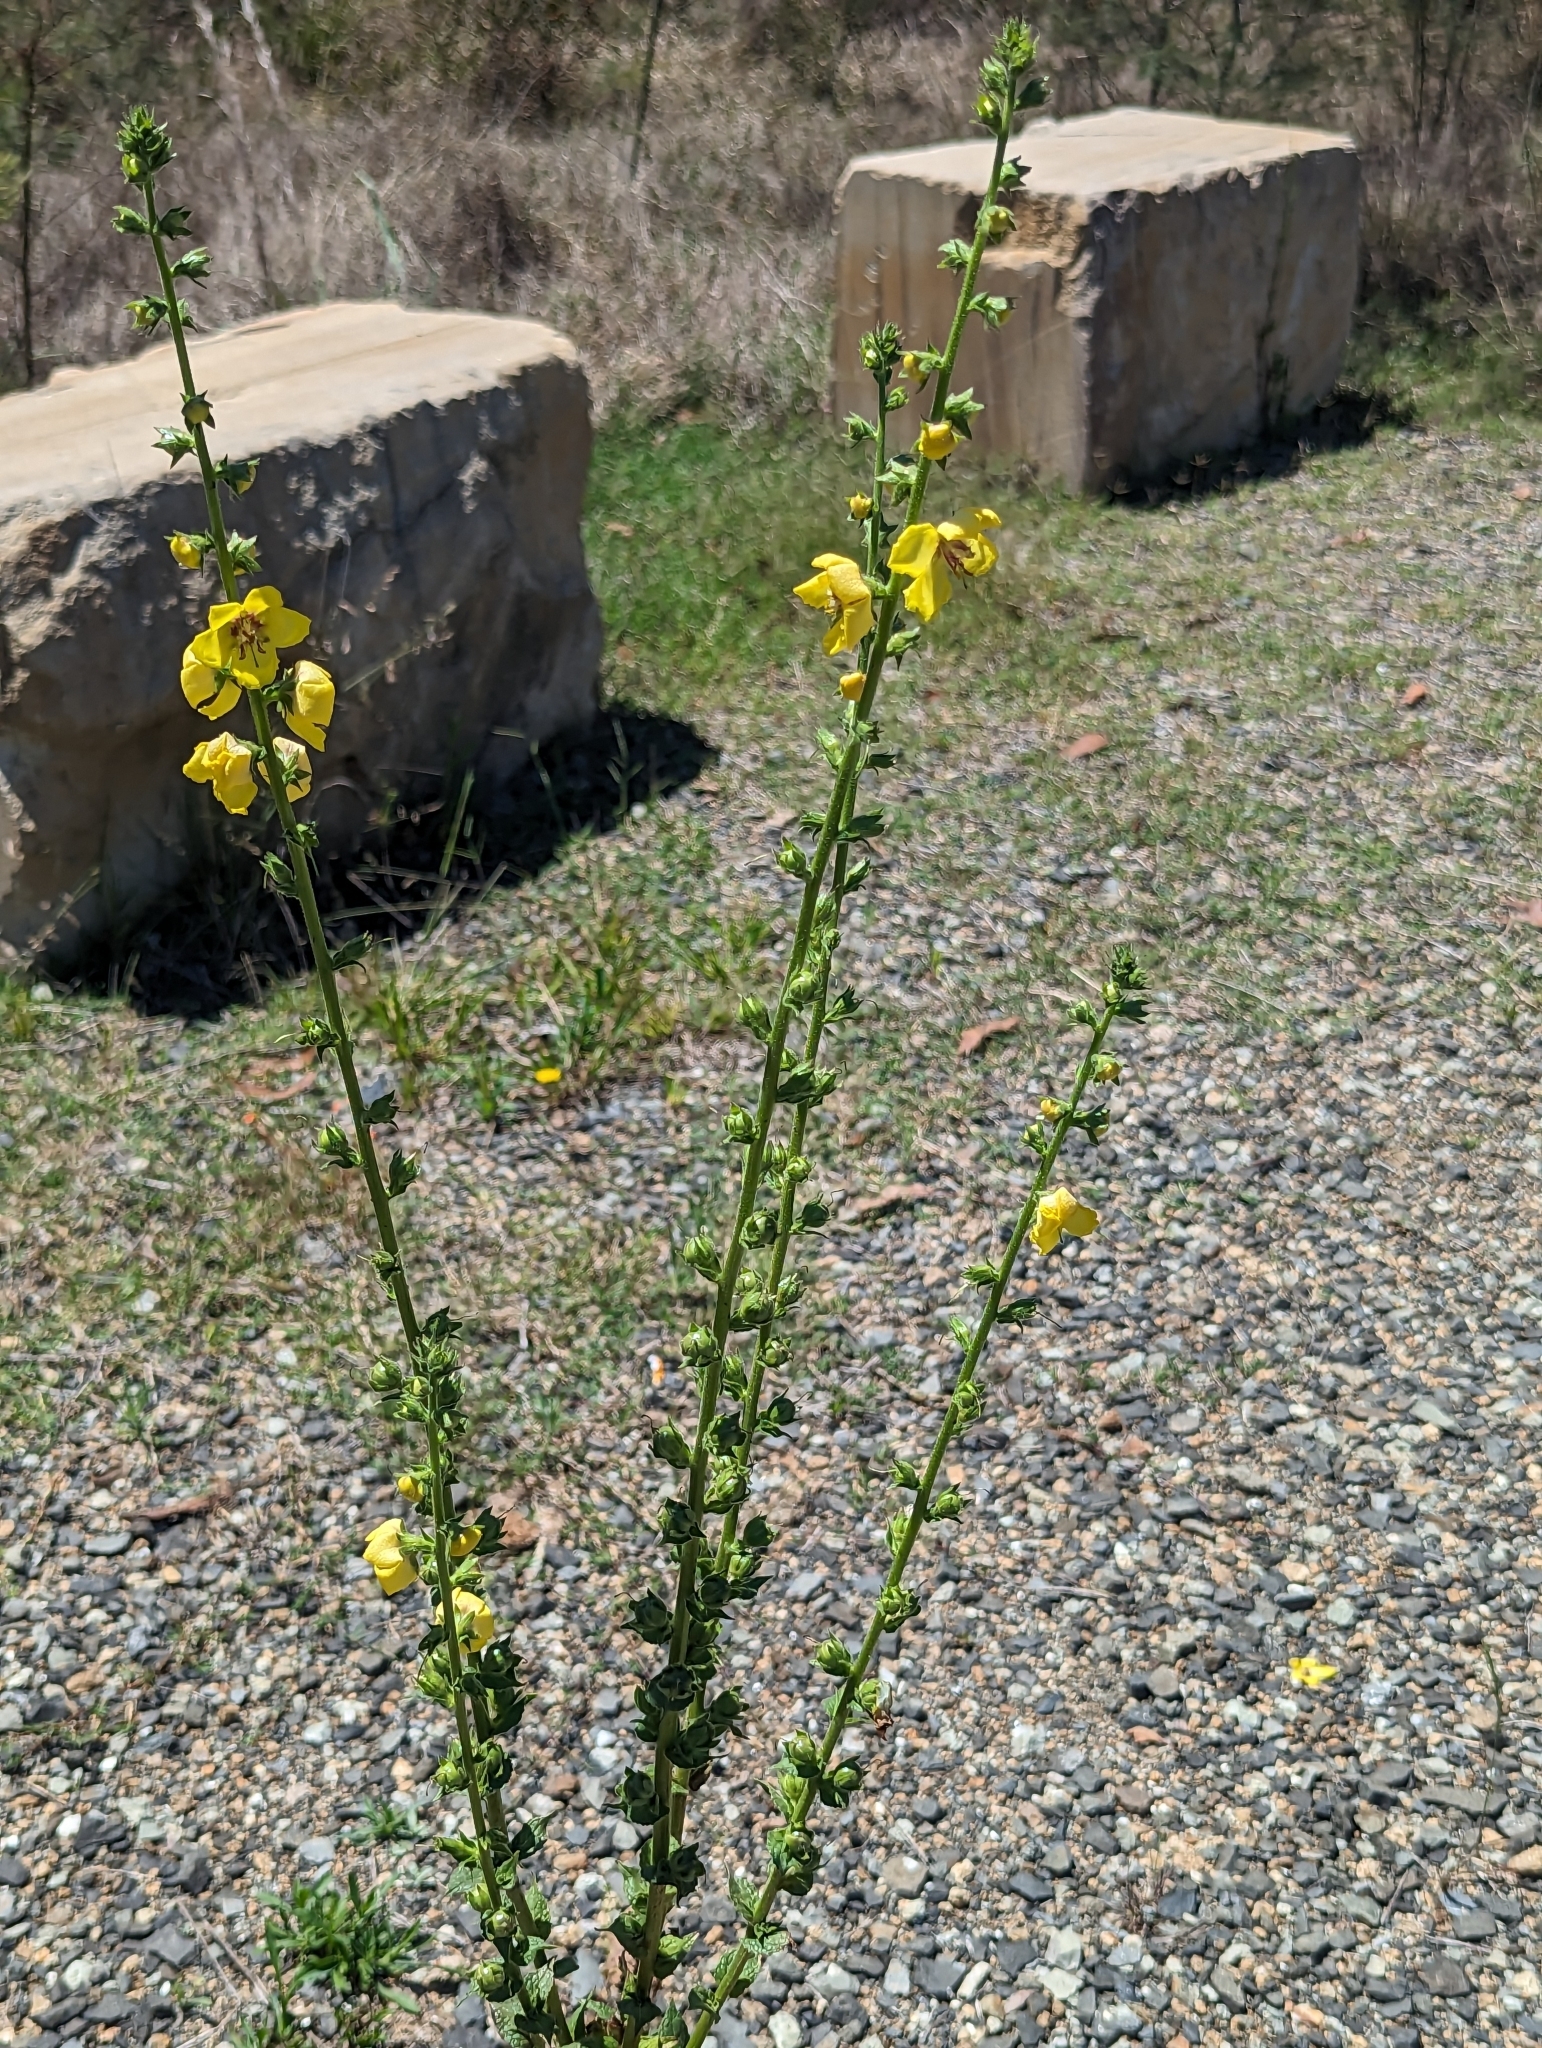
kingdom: Plantae
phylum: Tracheophyta
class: Magnoliopsida
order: Lamiales
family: Scrophulariaceae
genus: Verbascum
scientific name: Verbascum virgatum
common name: Twiggy mullein
